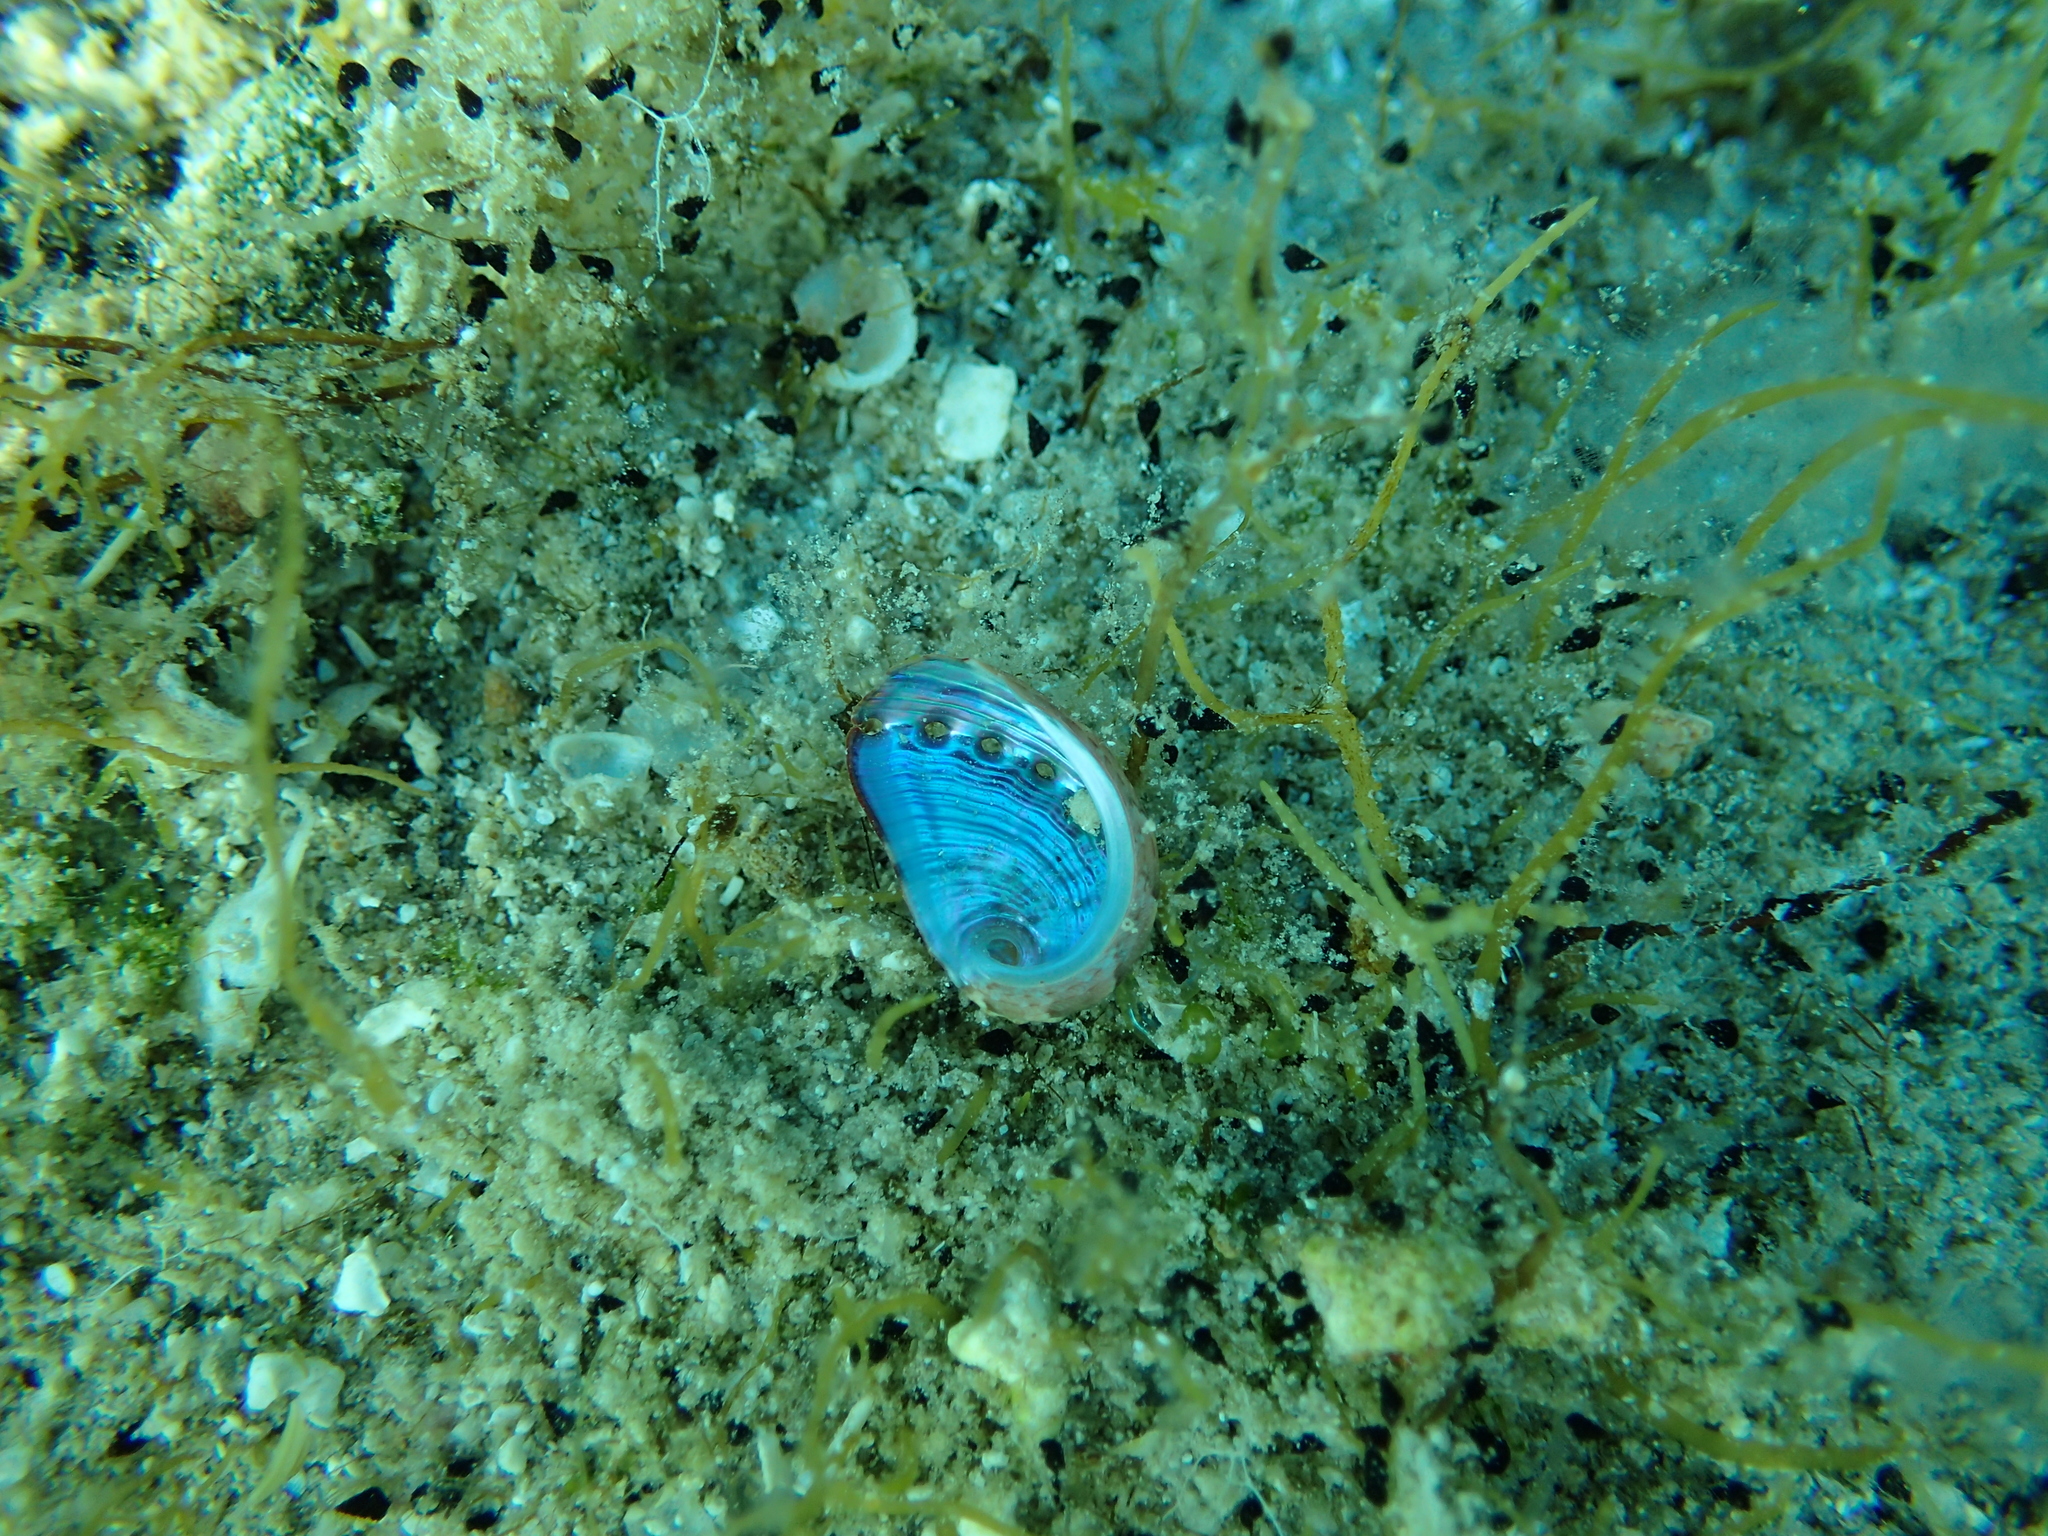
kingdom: Animalia
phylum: Mollusca
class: Gastropoda
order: Lepetellida
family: Haliotidae
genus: Haliotis
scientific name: Haliotis tuberculata
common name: Green ormer
